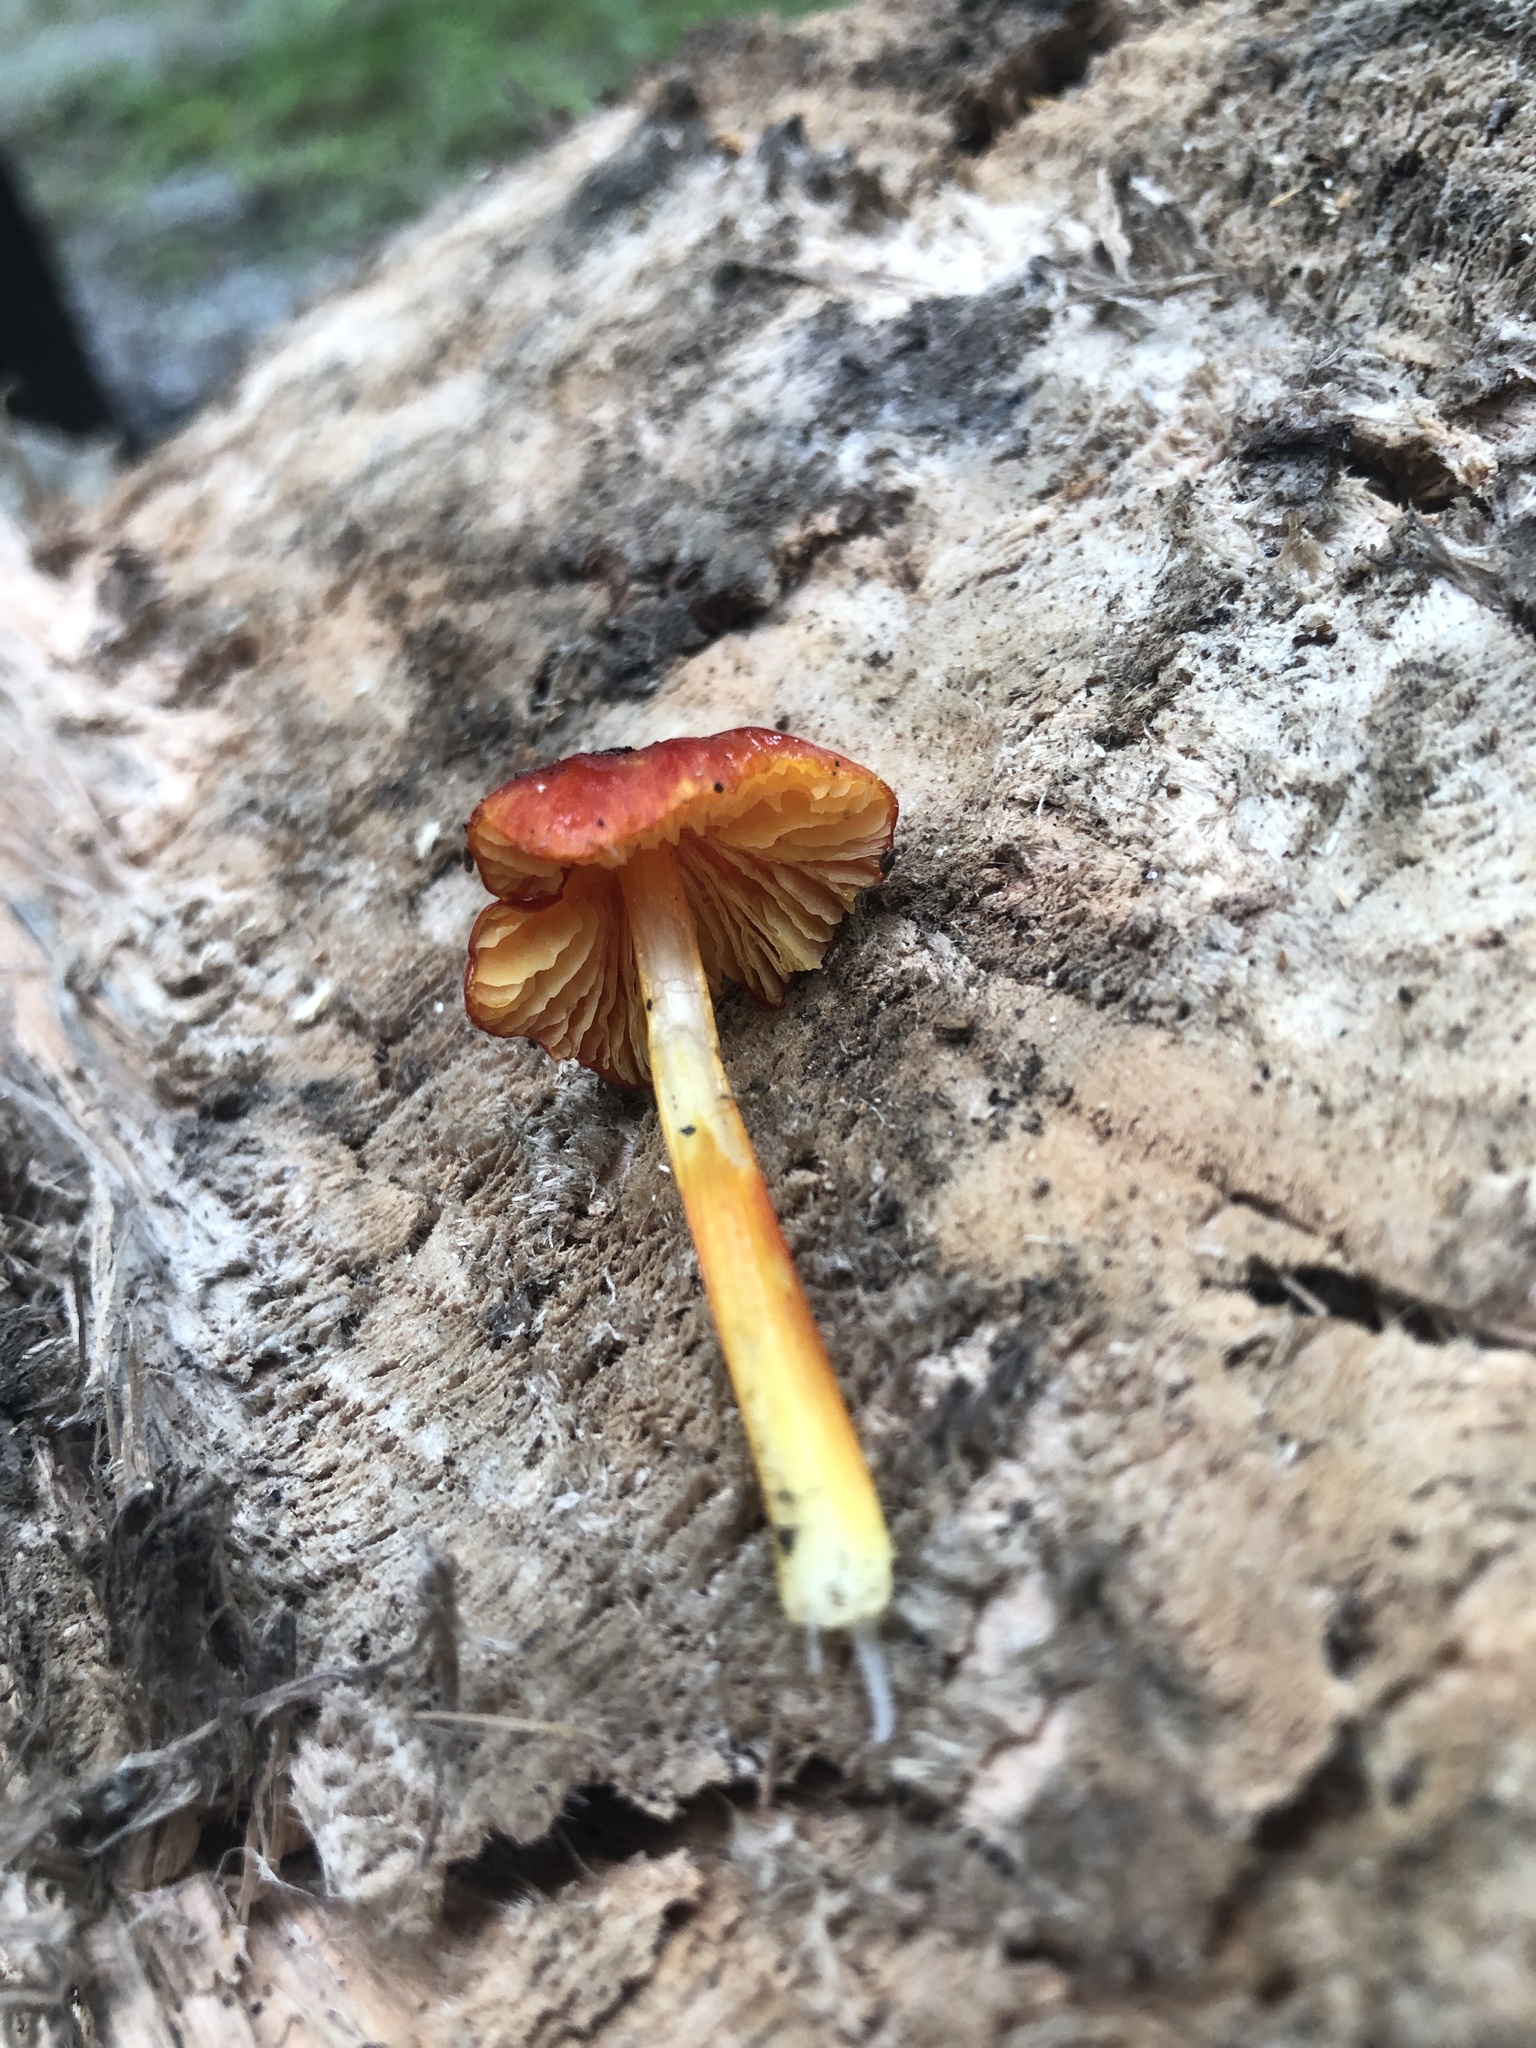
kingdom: Fungi
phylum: Basidiomycota
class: Agaricomycetes
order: Agaricales
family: Hygrophoraceae
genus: Hygrocybe
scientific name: Hygrocybe conica
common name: Blackening wax-cap
